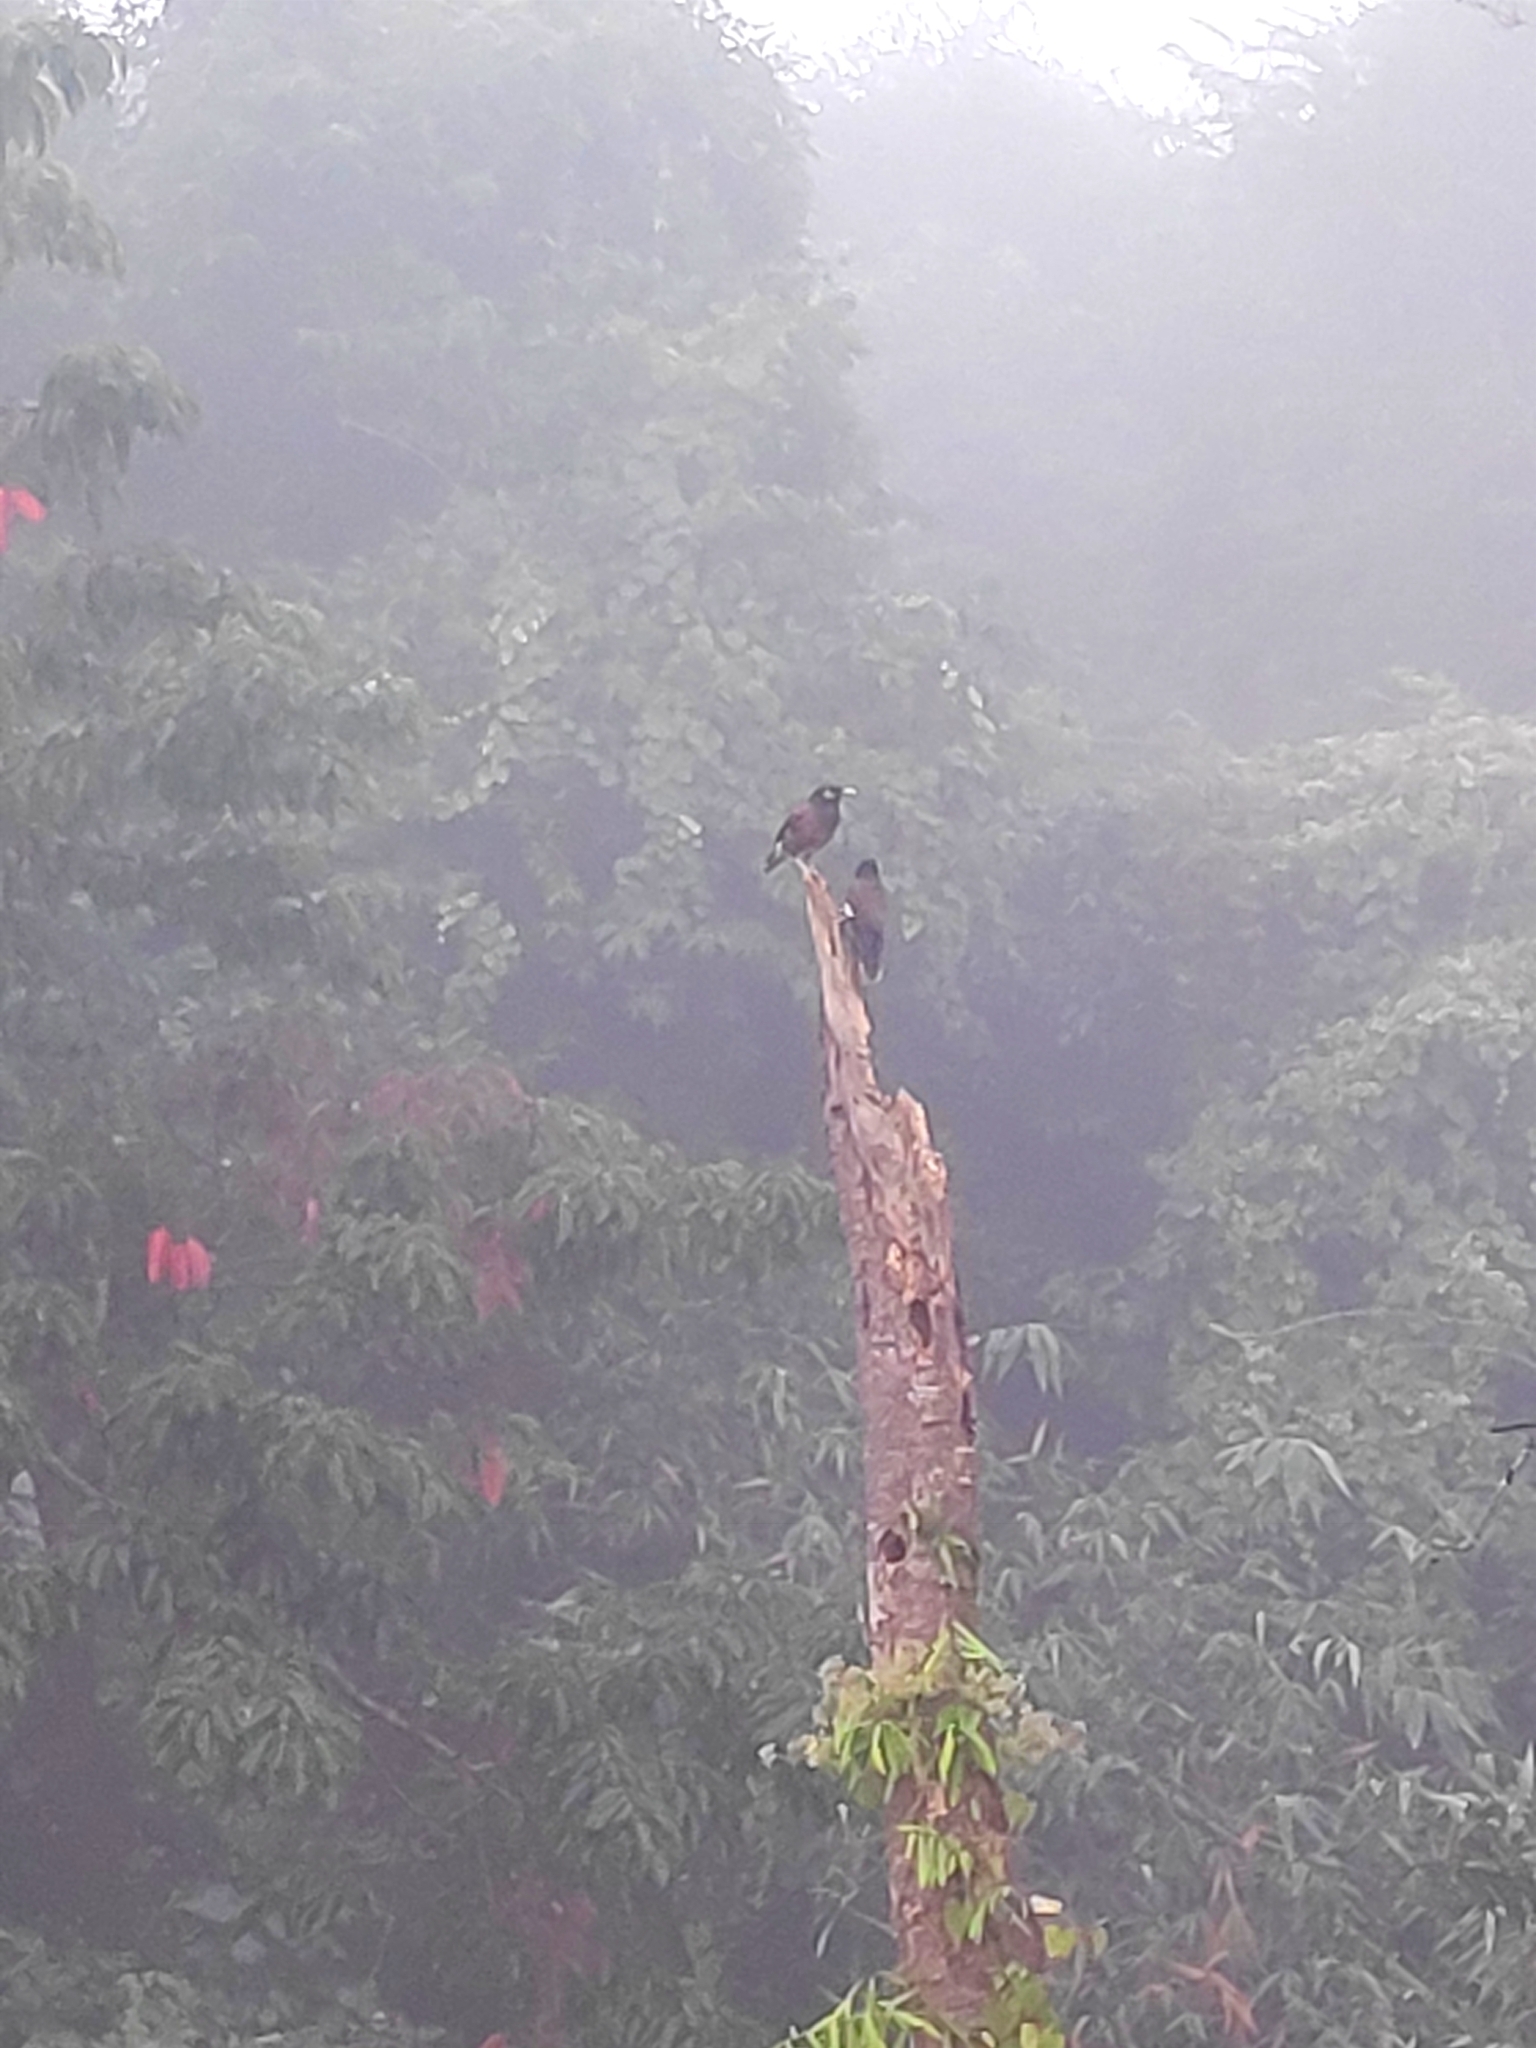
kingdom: Animalia
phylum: Chordata
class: Aves
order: Passeriformes
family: Sturnidae
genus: Acridotheres
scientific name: Acridotheres tristis
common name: Common myna
